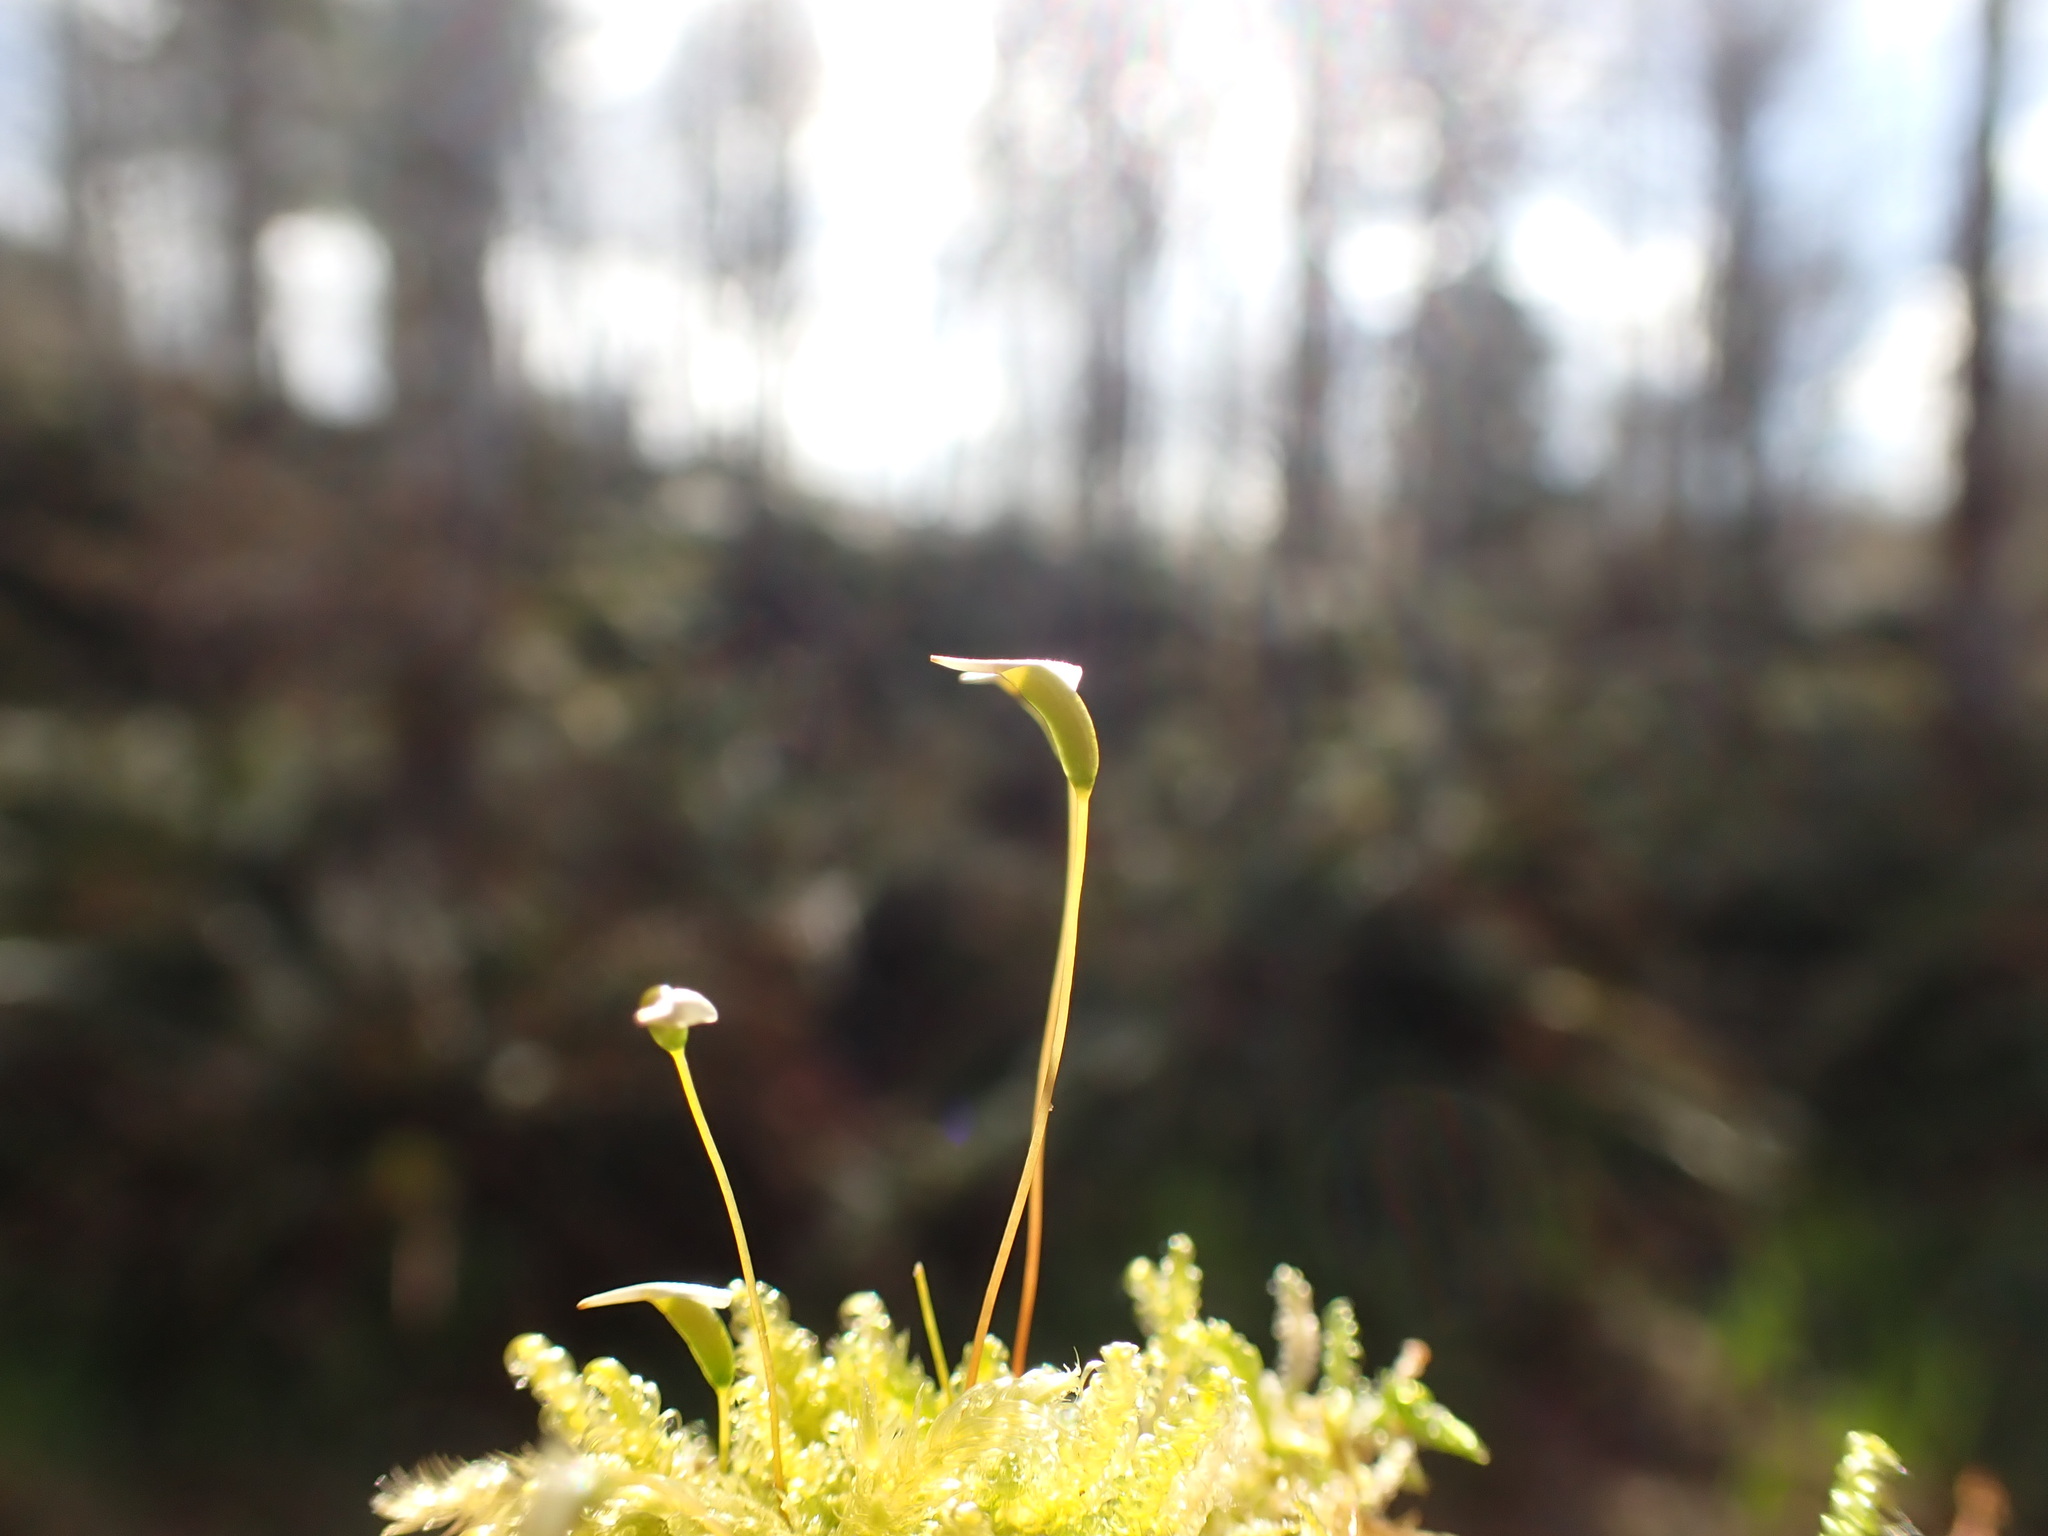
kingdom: Plantae
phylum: Bryophyta
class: Bryopsida
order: Hypnales
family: Stereodontaceae
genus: Stereodon
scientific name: Stereodon subimponens
